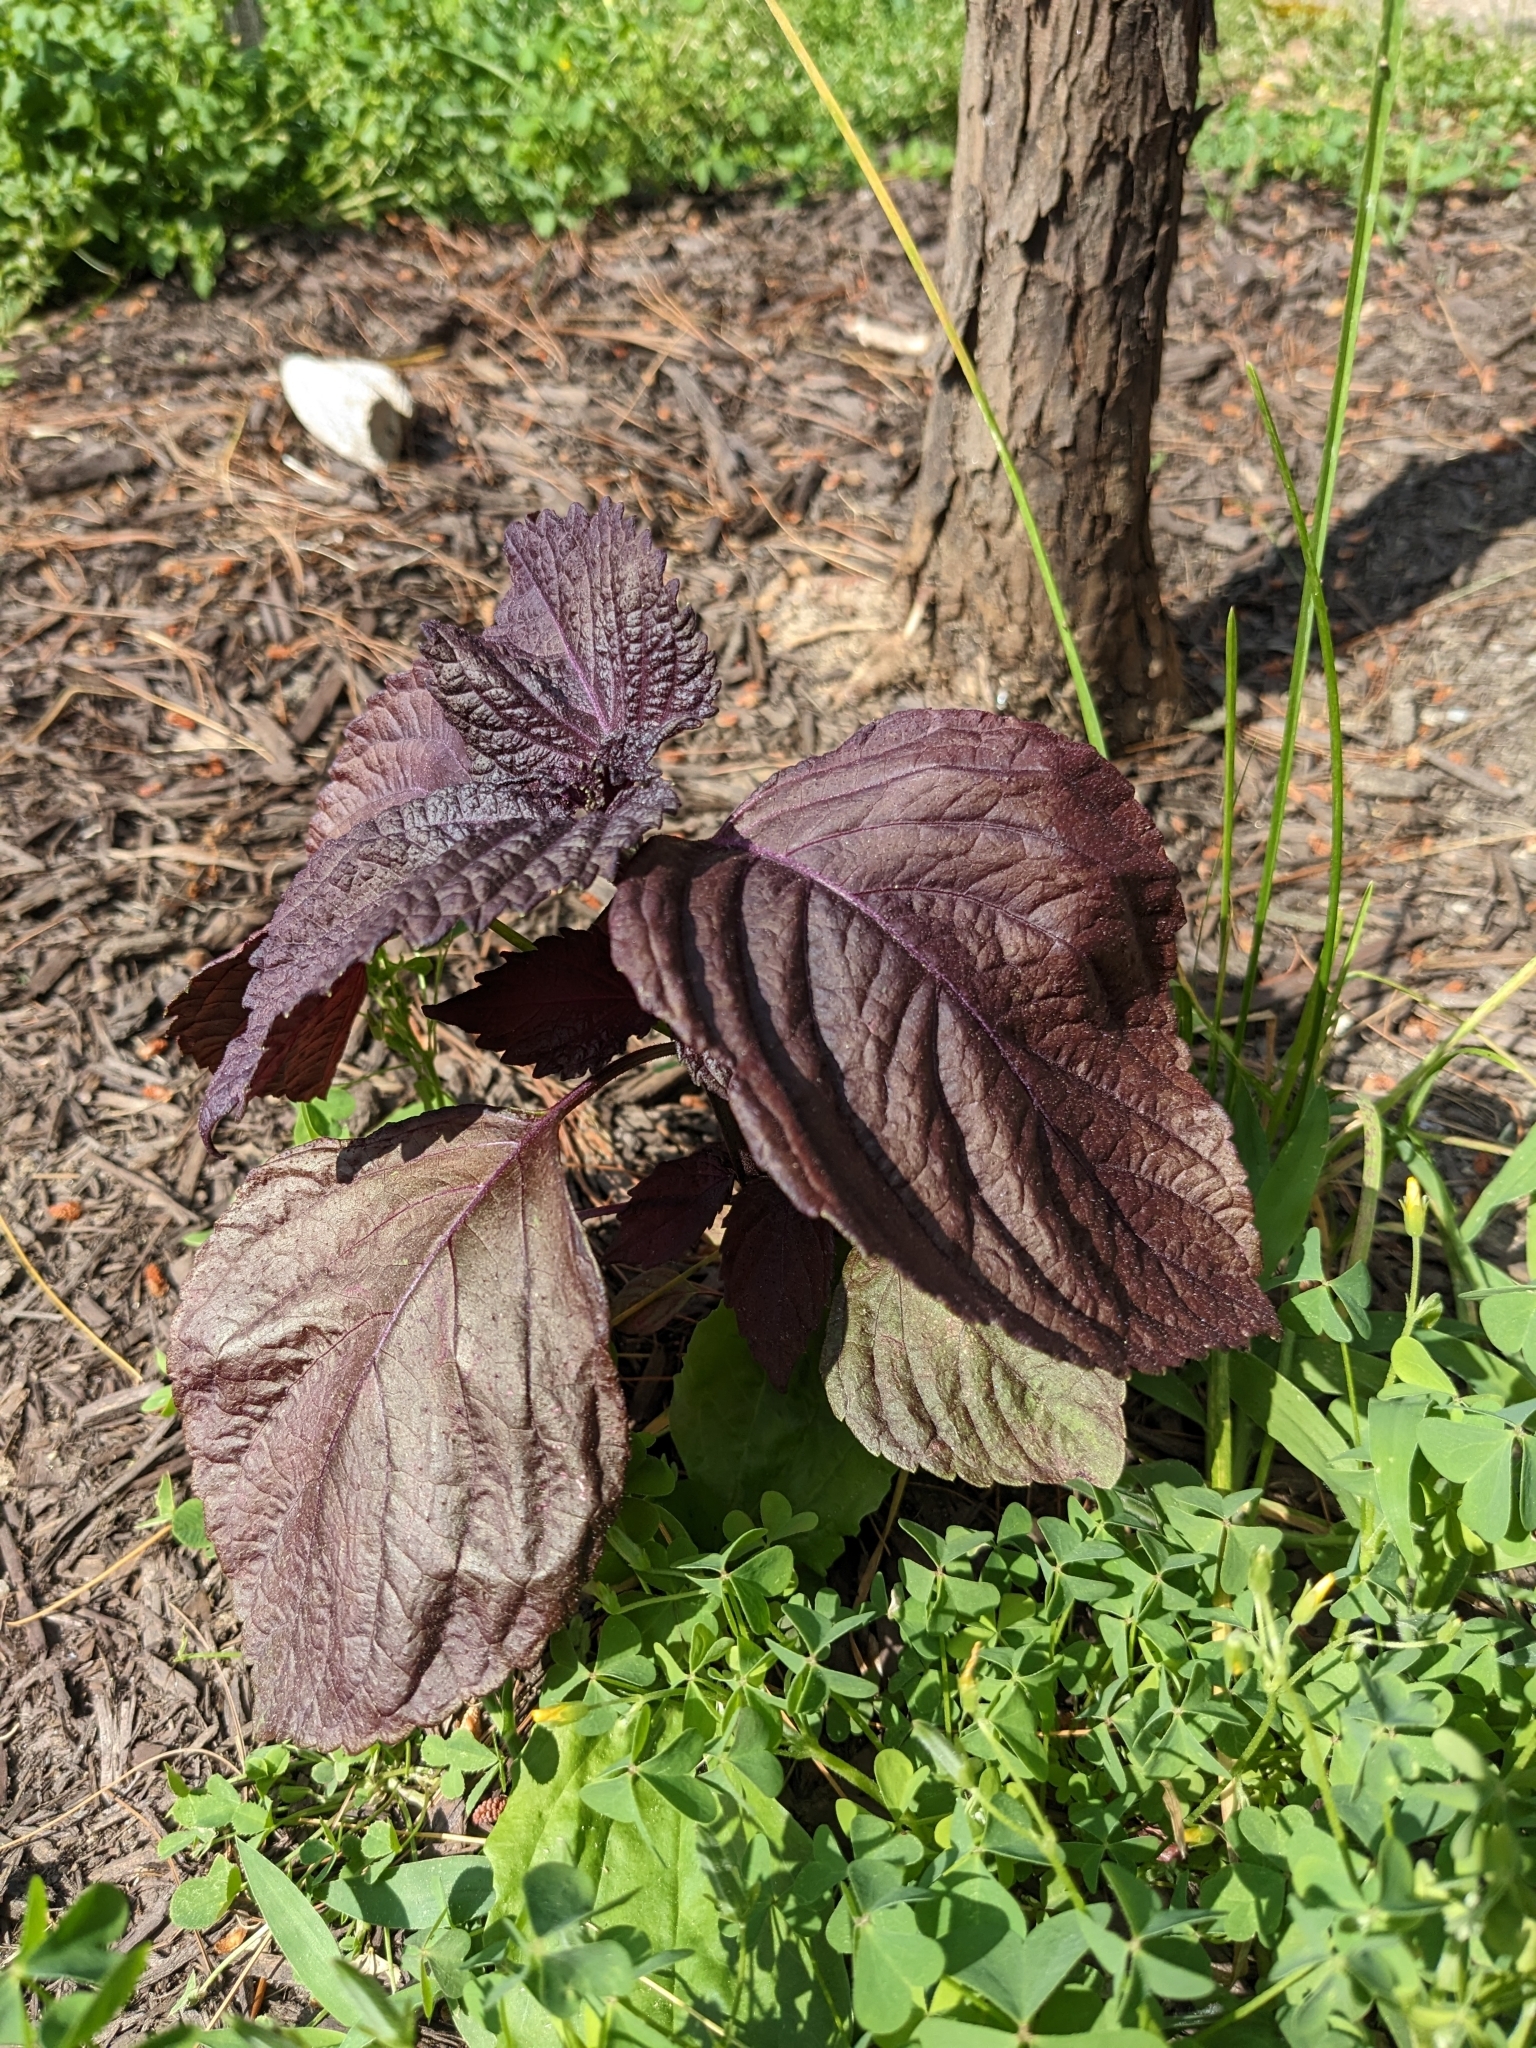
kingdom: Plantae
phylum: Tracheophyta
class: Magnoliopsida
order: Lamiales
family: Lamiaceae
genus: Perilla
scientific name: Perilla frutescens
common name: Perilla
